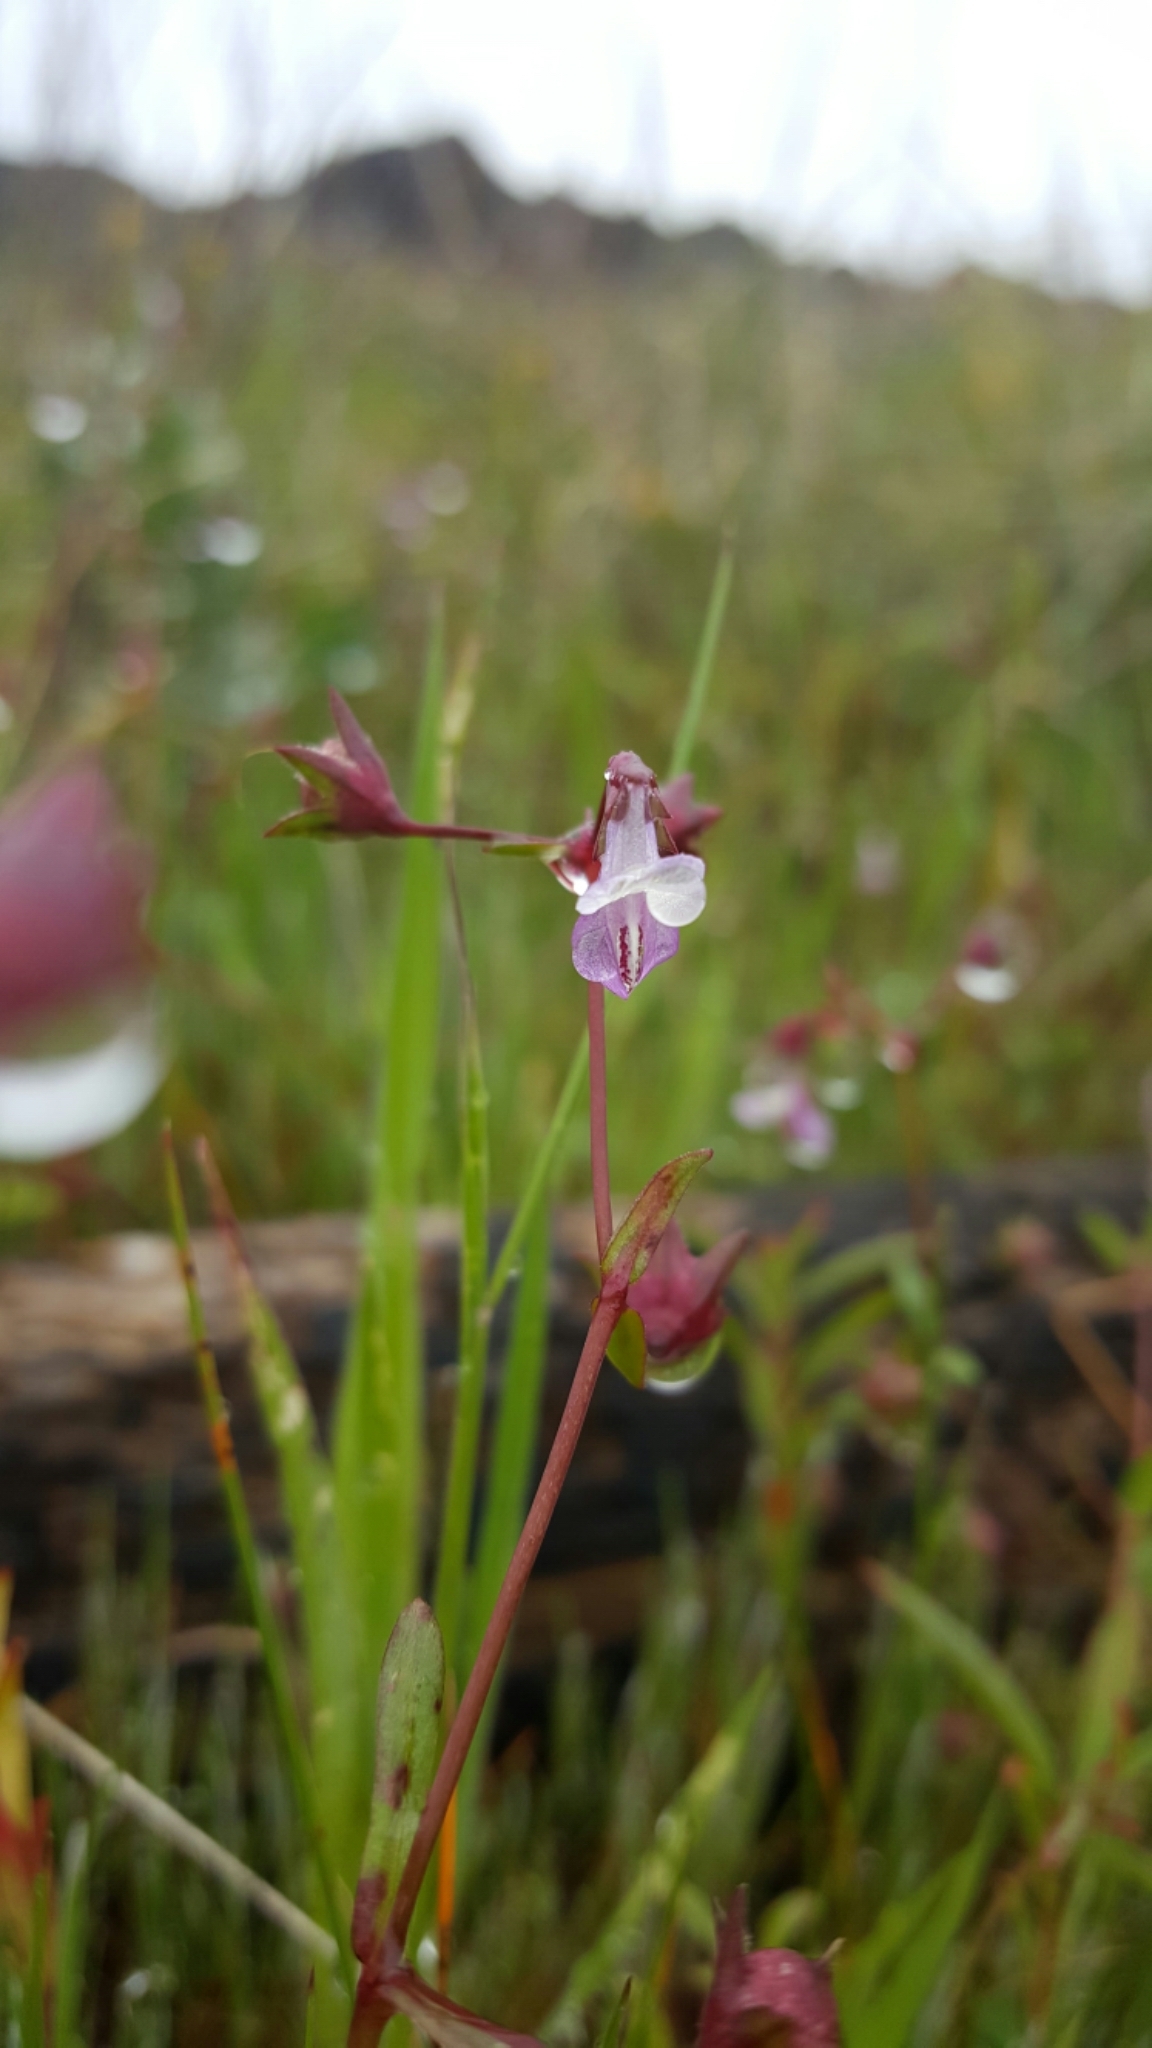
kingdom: Plantae
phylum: Tracheophyta
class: Magnoliopsida
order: Lamiales
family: Plantaginaceae
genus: Collinsia
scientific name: Collinsia sparsiflora
